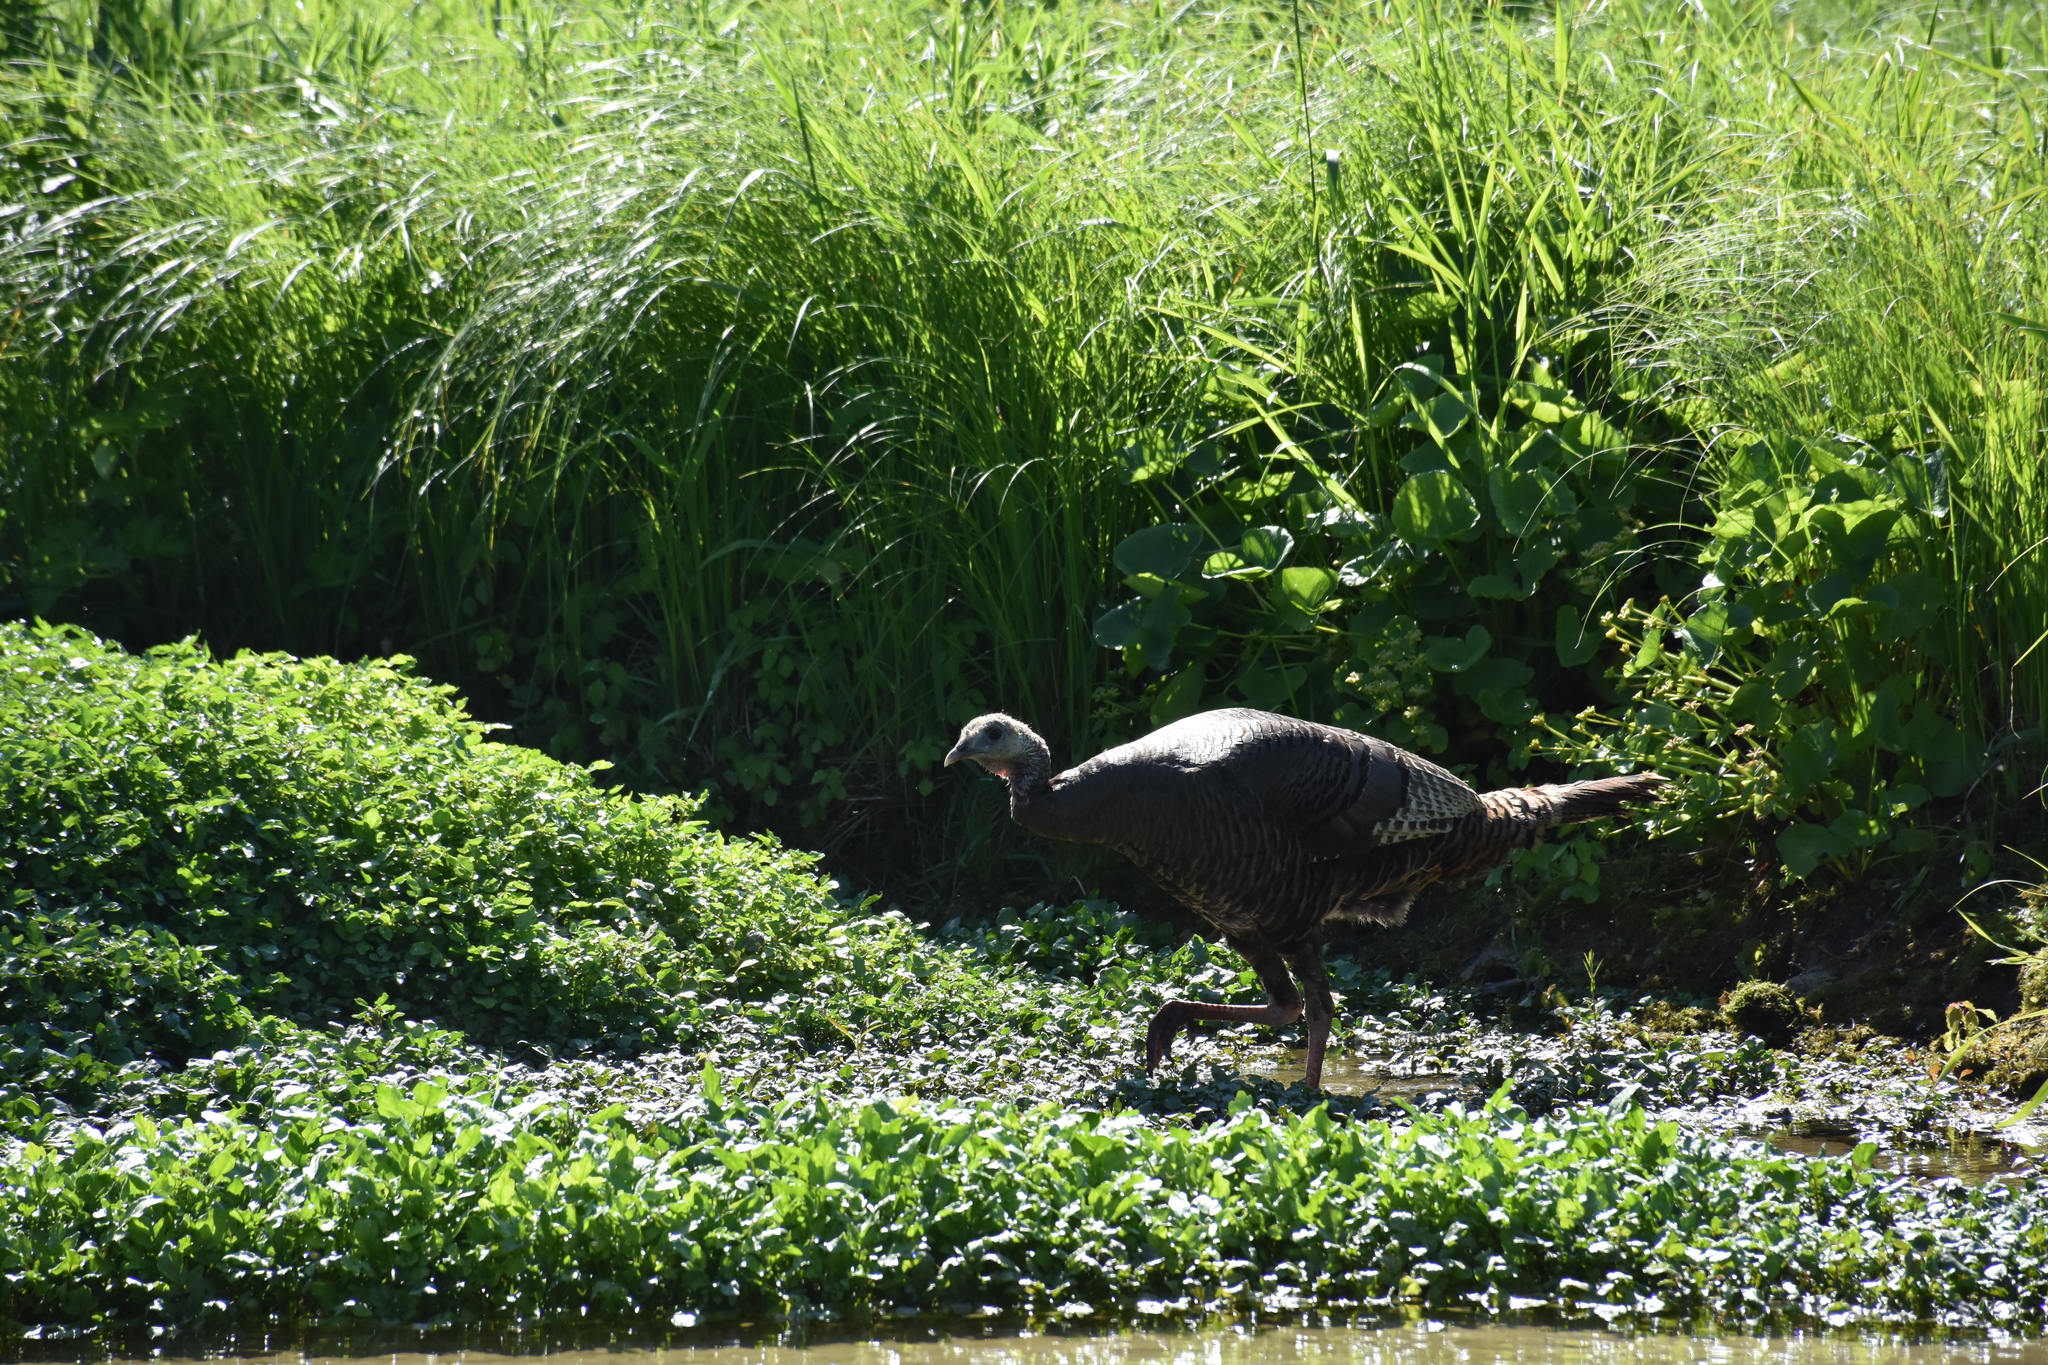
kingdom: Animalia
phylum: Chordata
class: Aves
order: Galliformes
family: Phasianidae
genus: Meleagris
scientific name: Meleagris gallopavo
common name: Wild turkey
